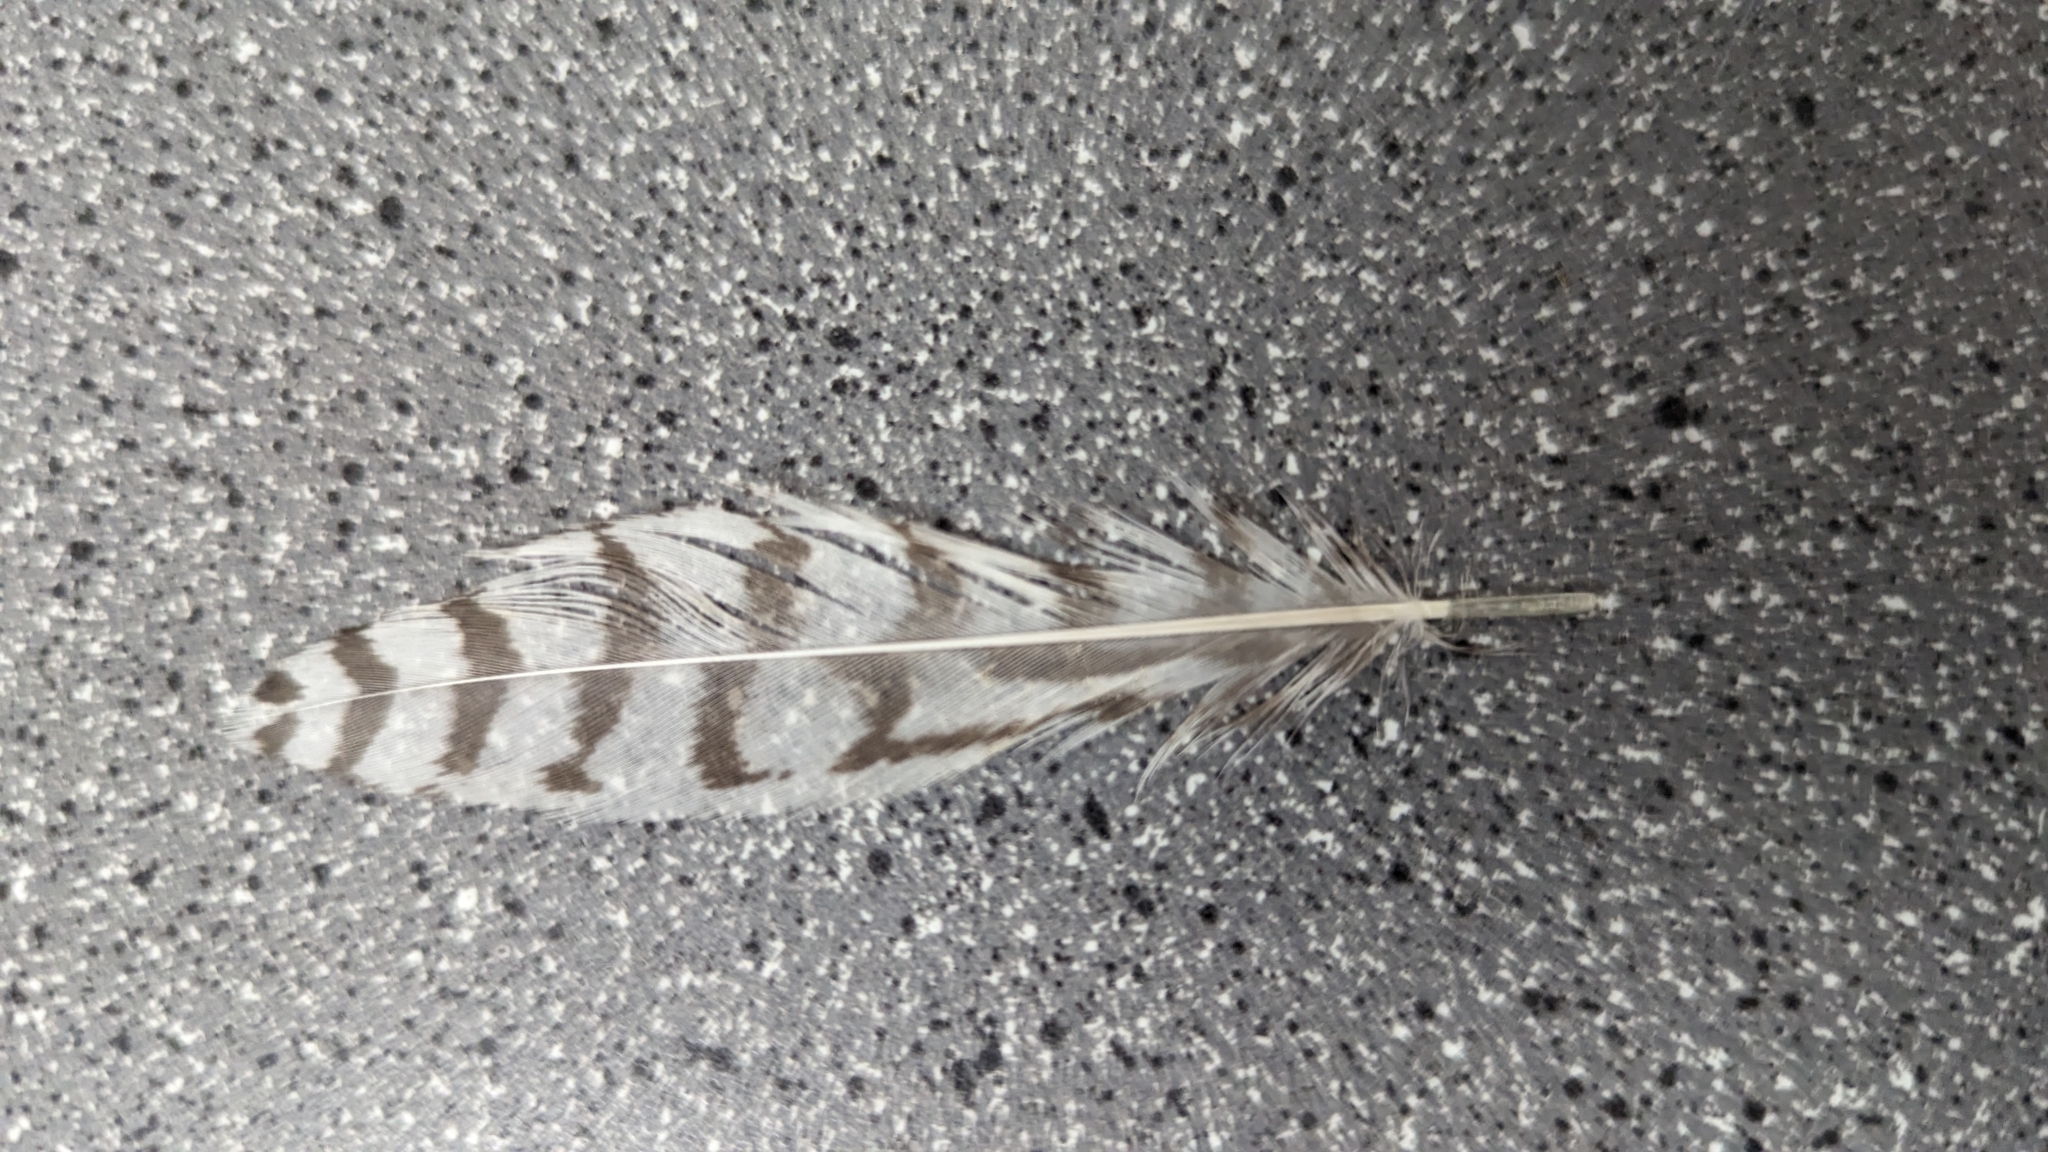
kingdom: Animalia
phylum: Chordata
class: Aves
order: Anseriformes
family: Anatidae
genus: Aix
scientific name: Aix sponsa
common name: Wood duck
